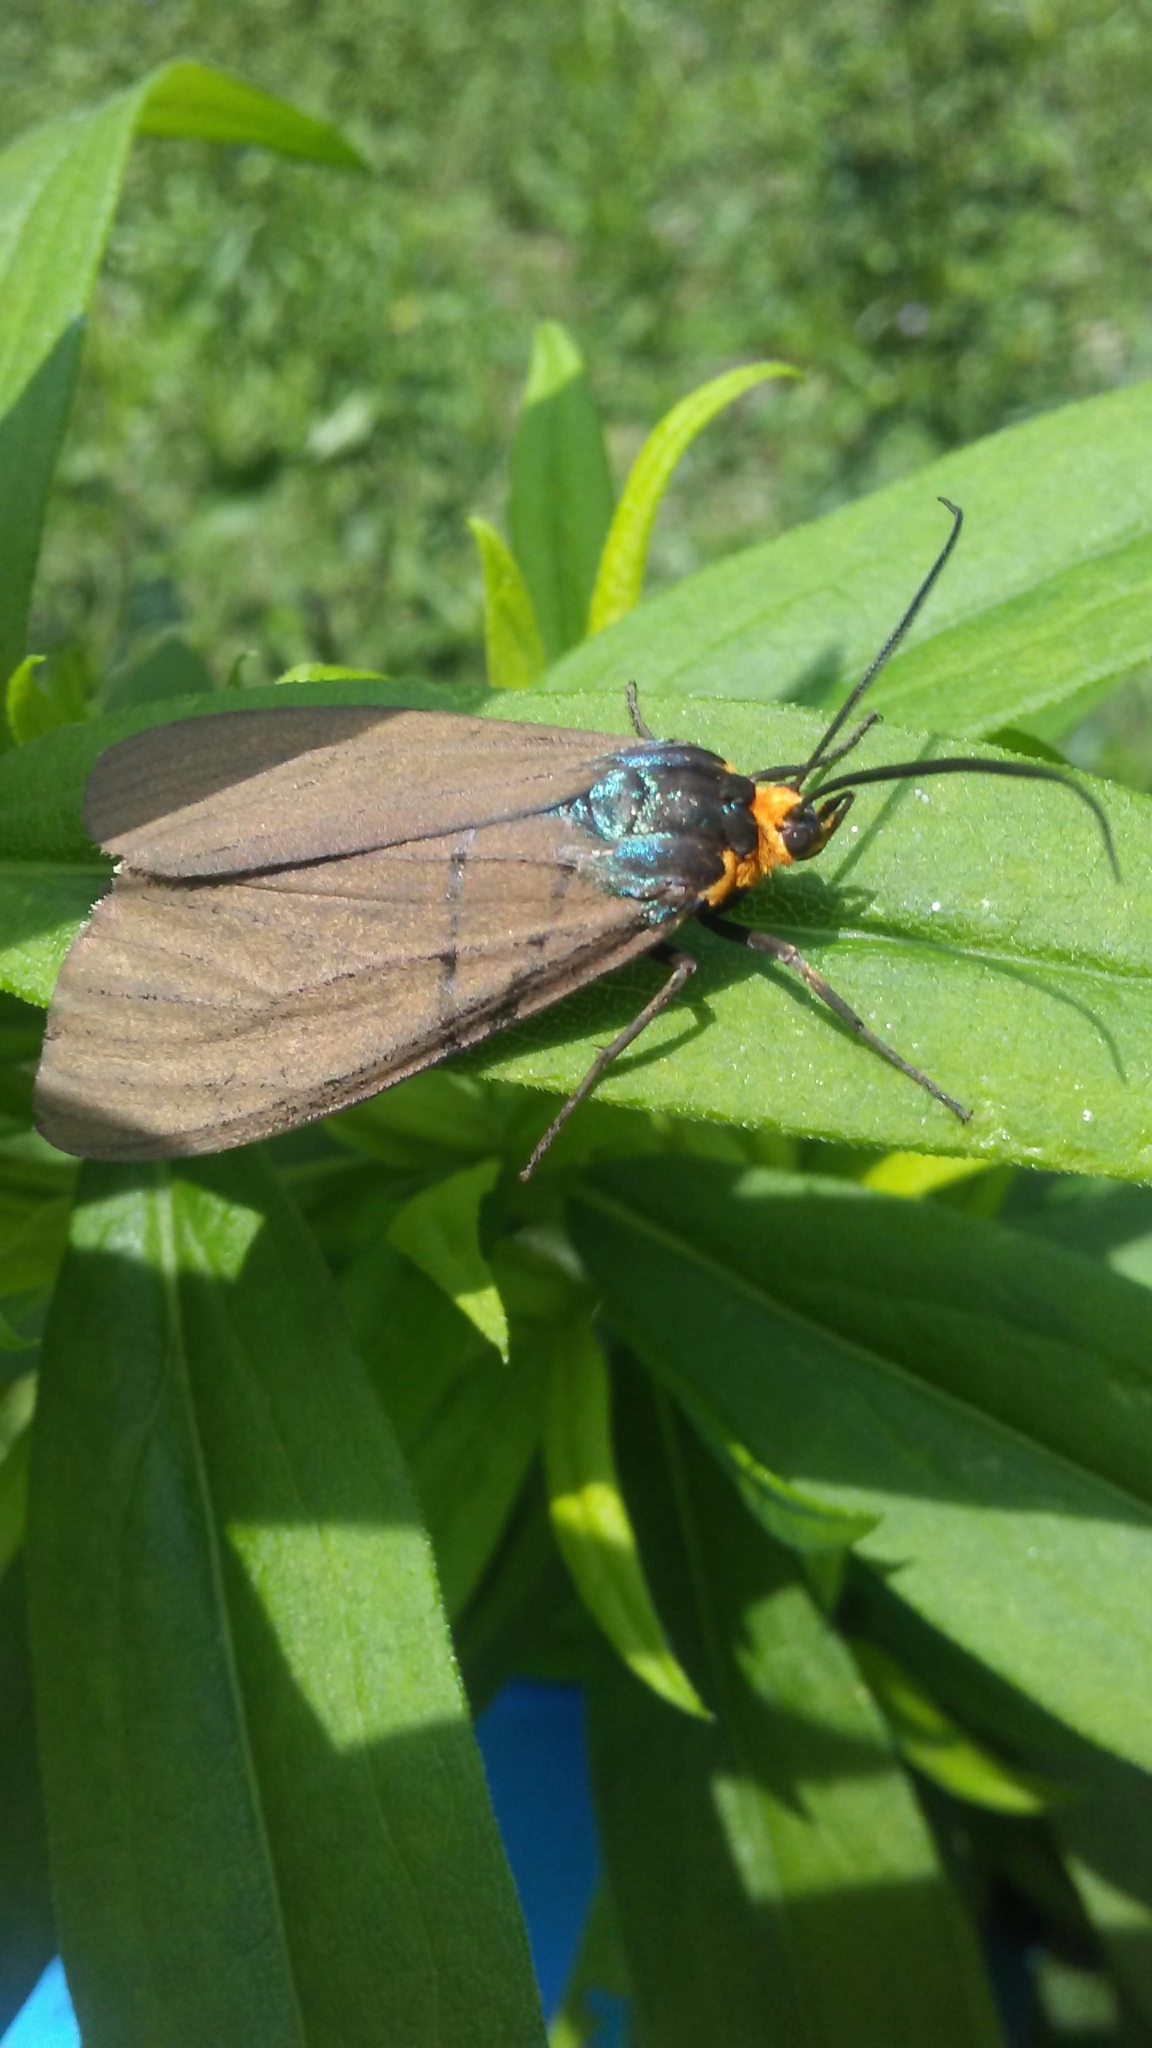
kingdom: Animalia
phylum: Arthropoda
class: Insecta
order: Lepidoptera
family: Erebidae
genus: Ctenucha
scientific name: Ctenucha virginica
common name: Virginia ctenucha moth
